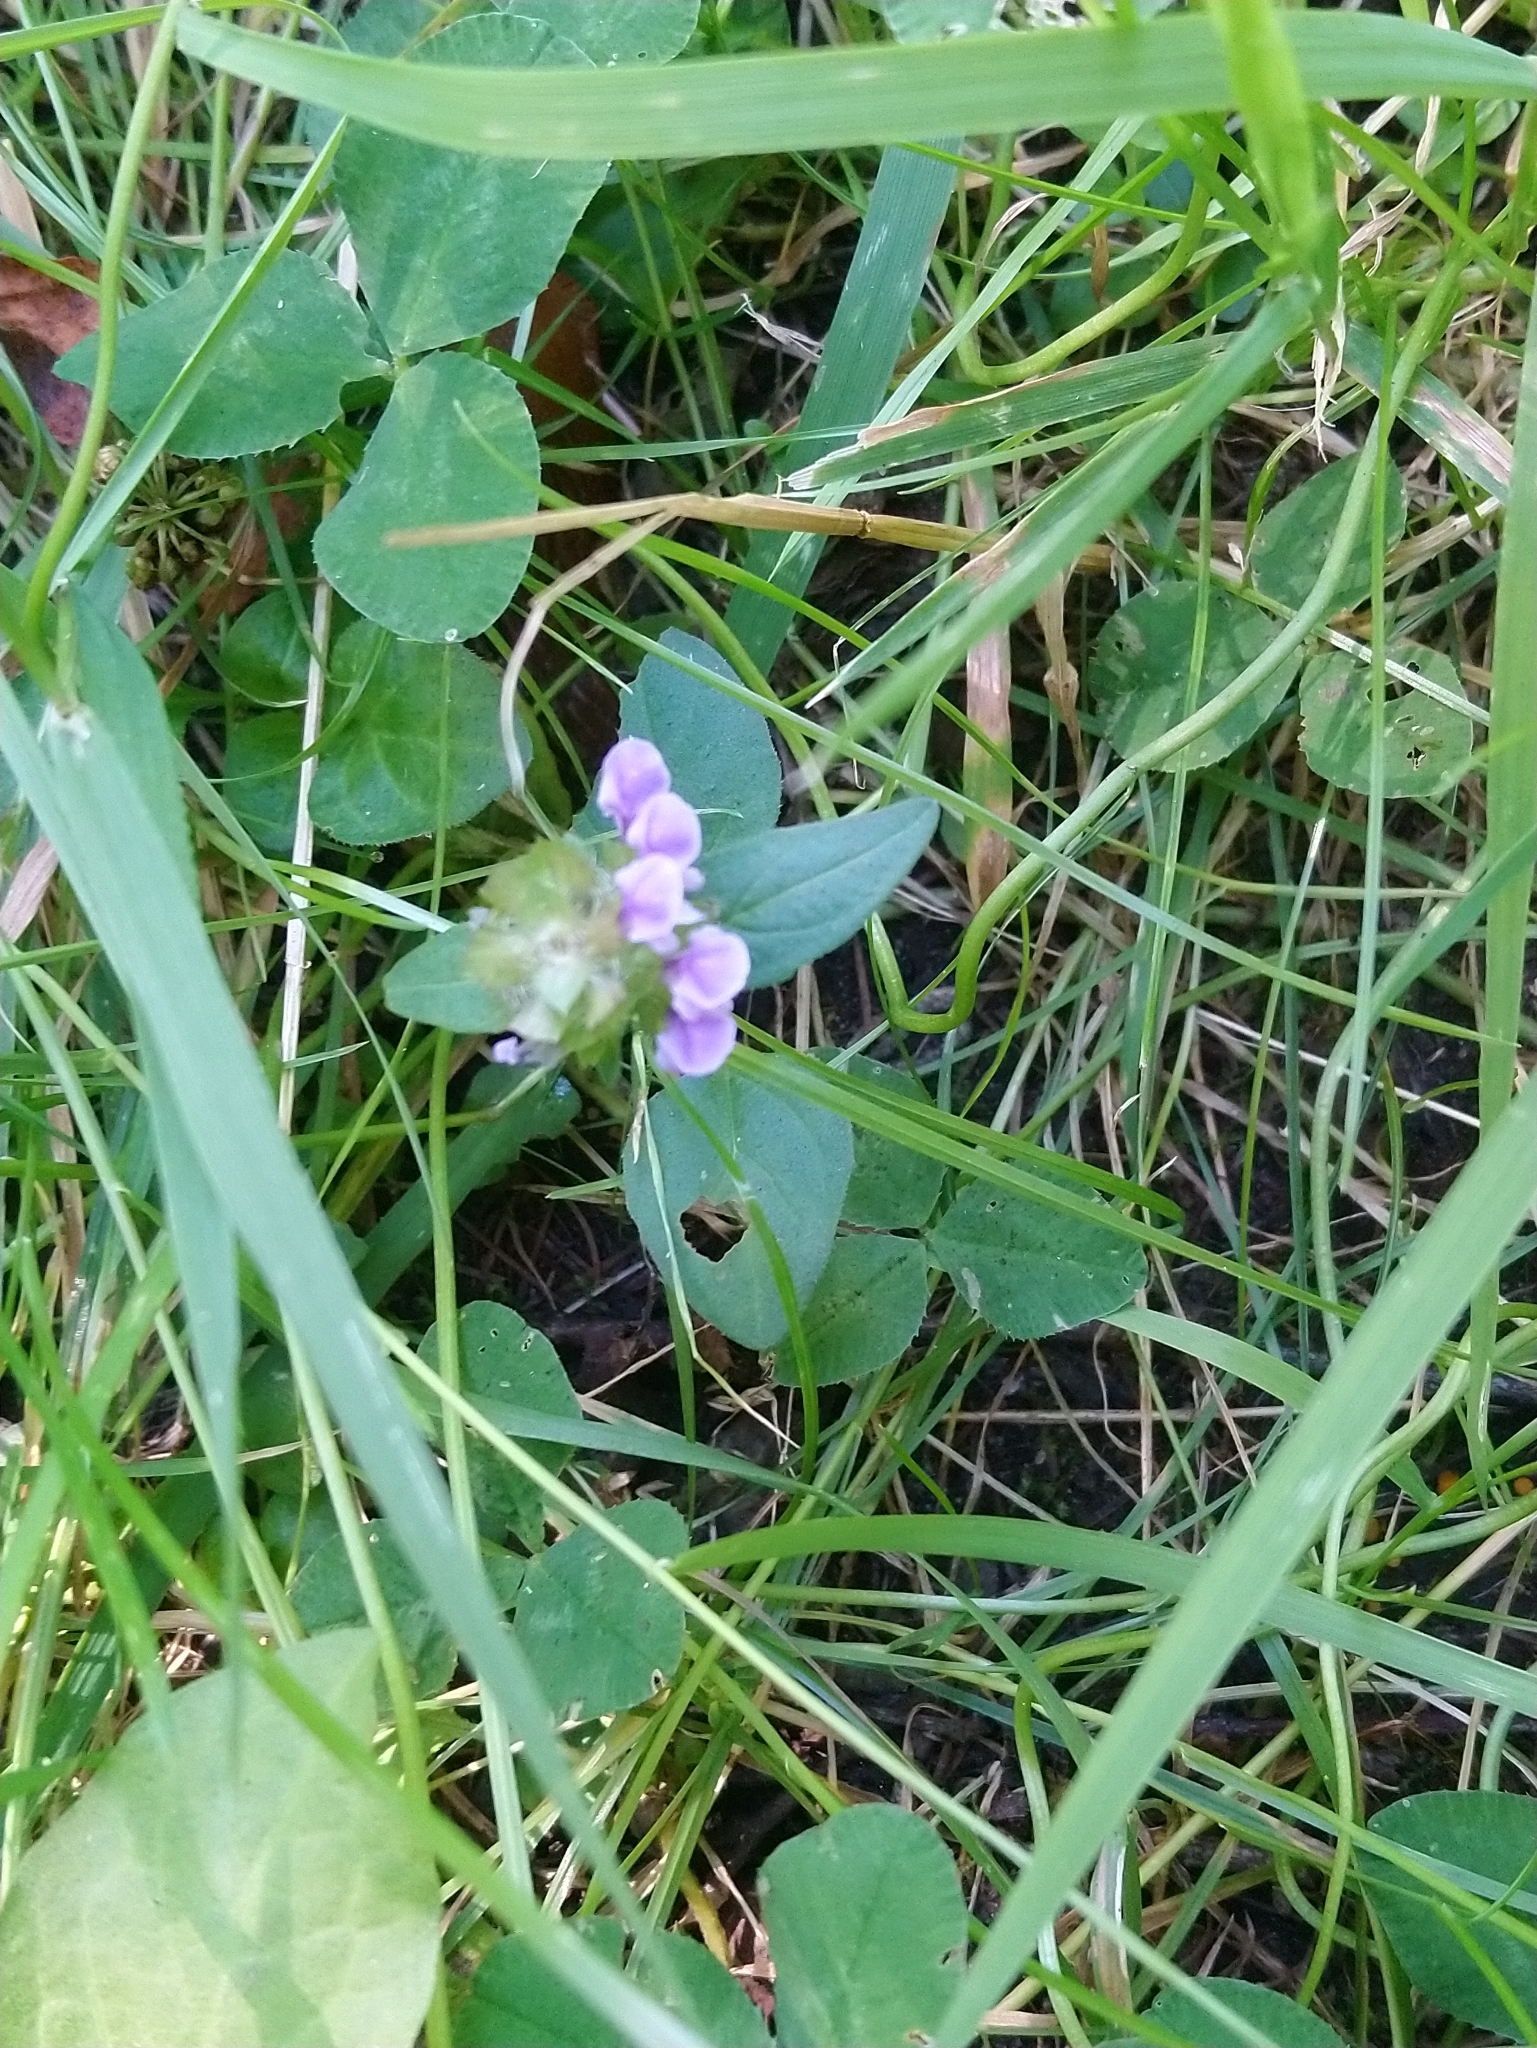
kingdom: Plantae
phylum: Tracheophyta
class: Magnoliopsida
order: Lamiales
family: Lamiaceae
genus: Prunella
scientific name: Prunella vulgaris
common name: Heal-all
